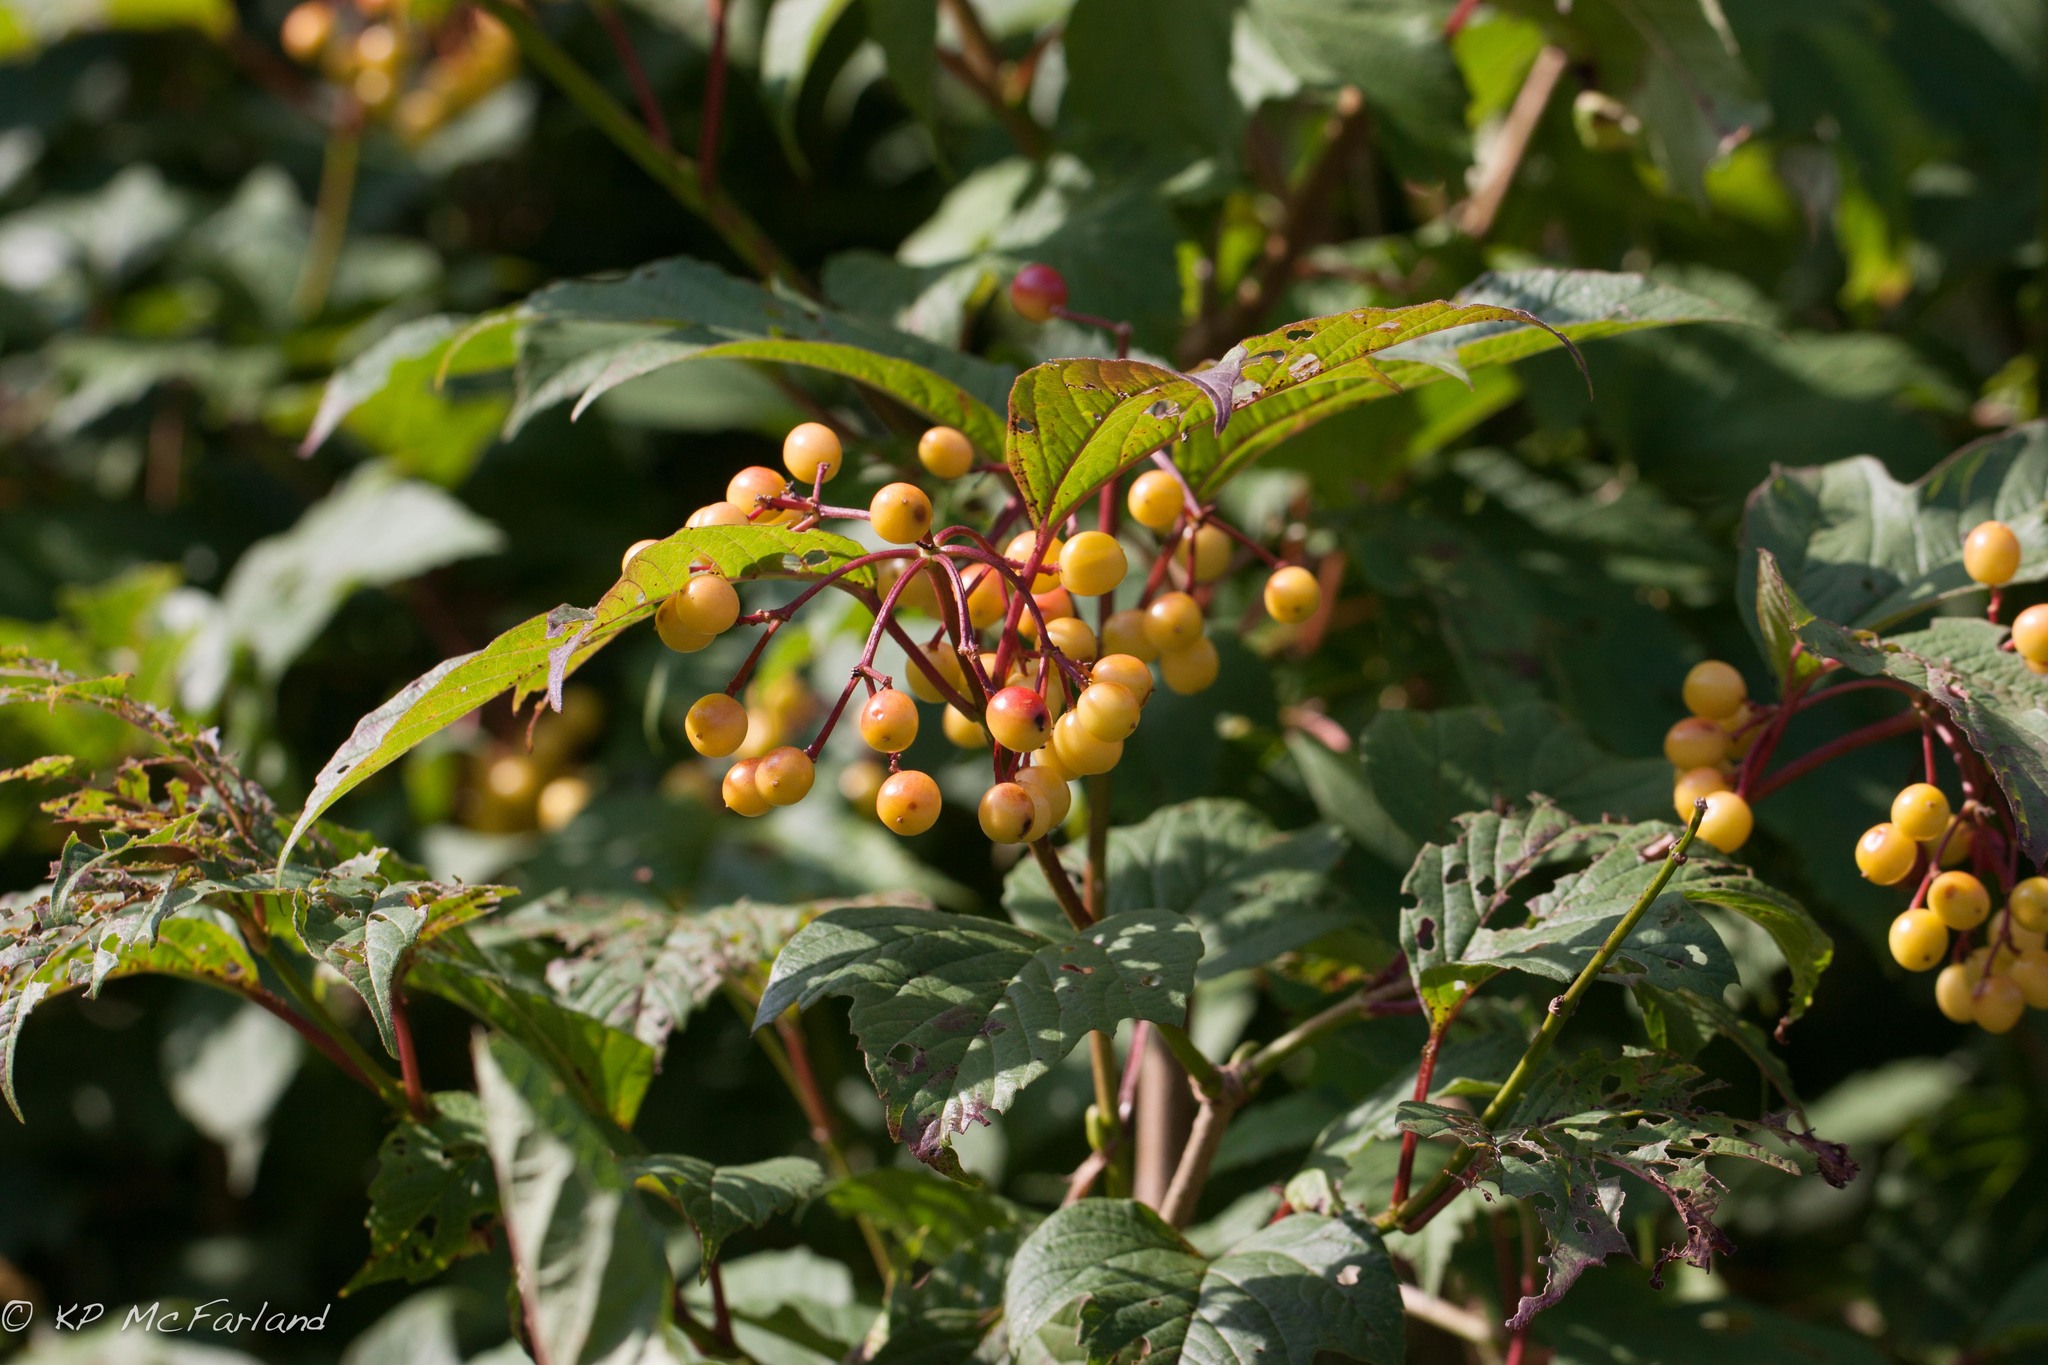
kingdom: Plantae
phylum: Tracheophyta
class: Magnoliopsida
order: Dipsacales
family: Viburnaceae
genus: Viburnum
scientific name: Viburnum opulus
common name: Guelder-rose
